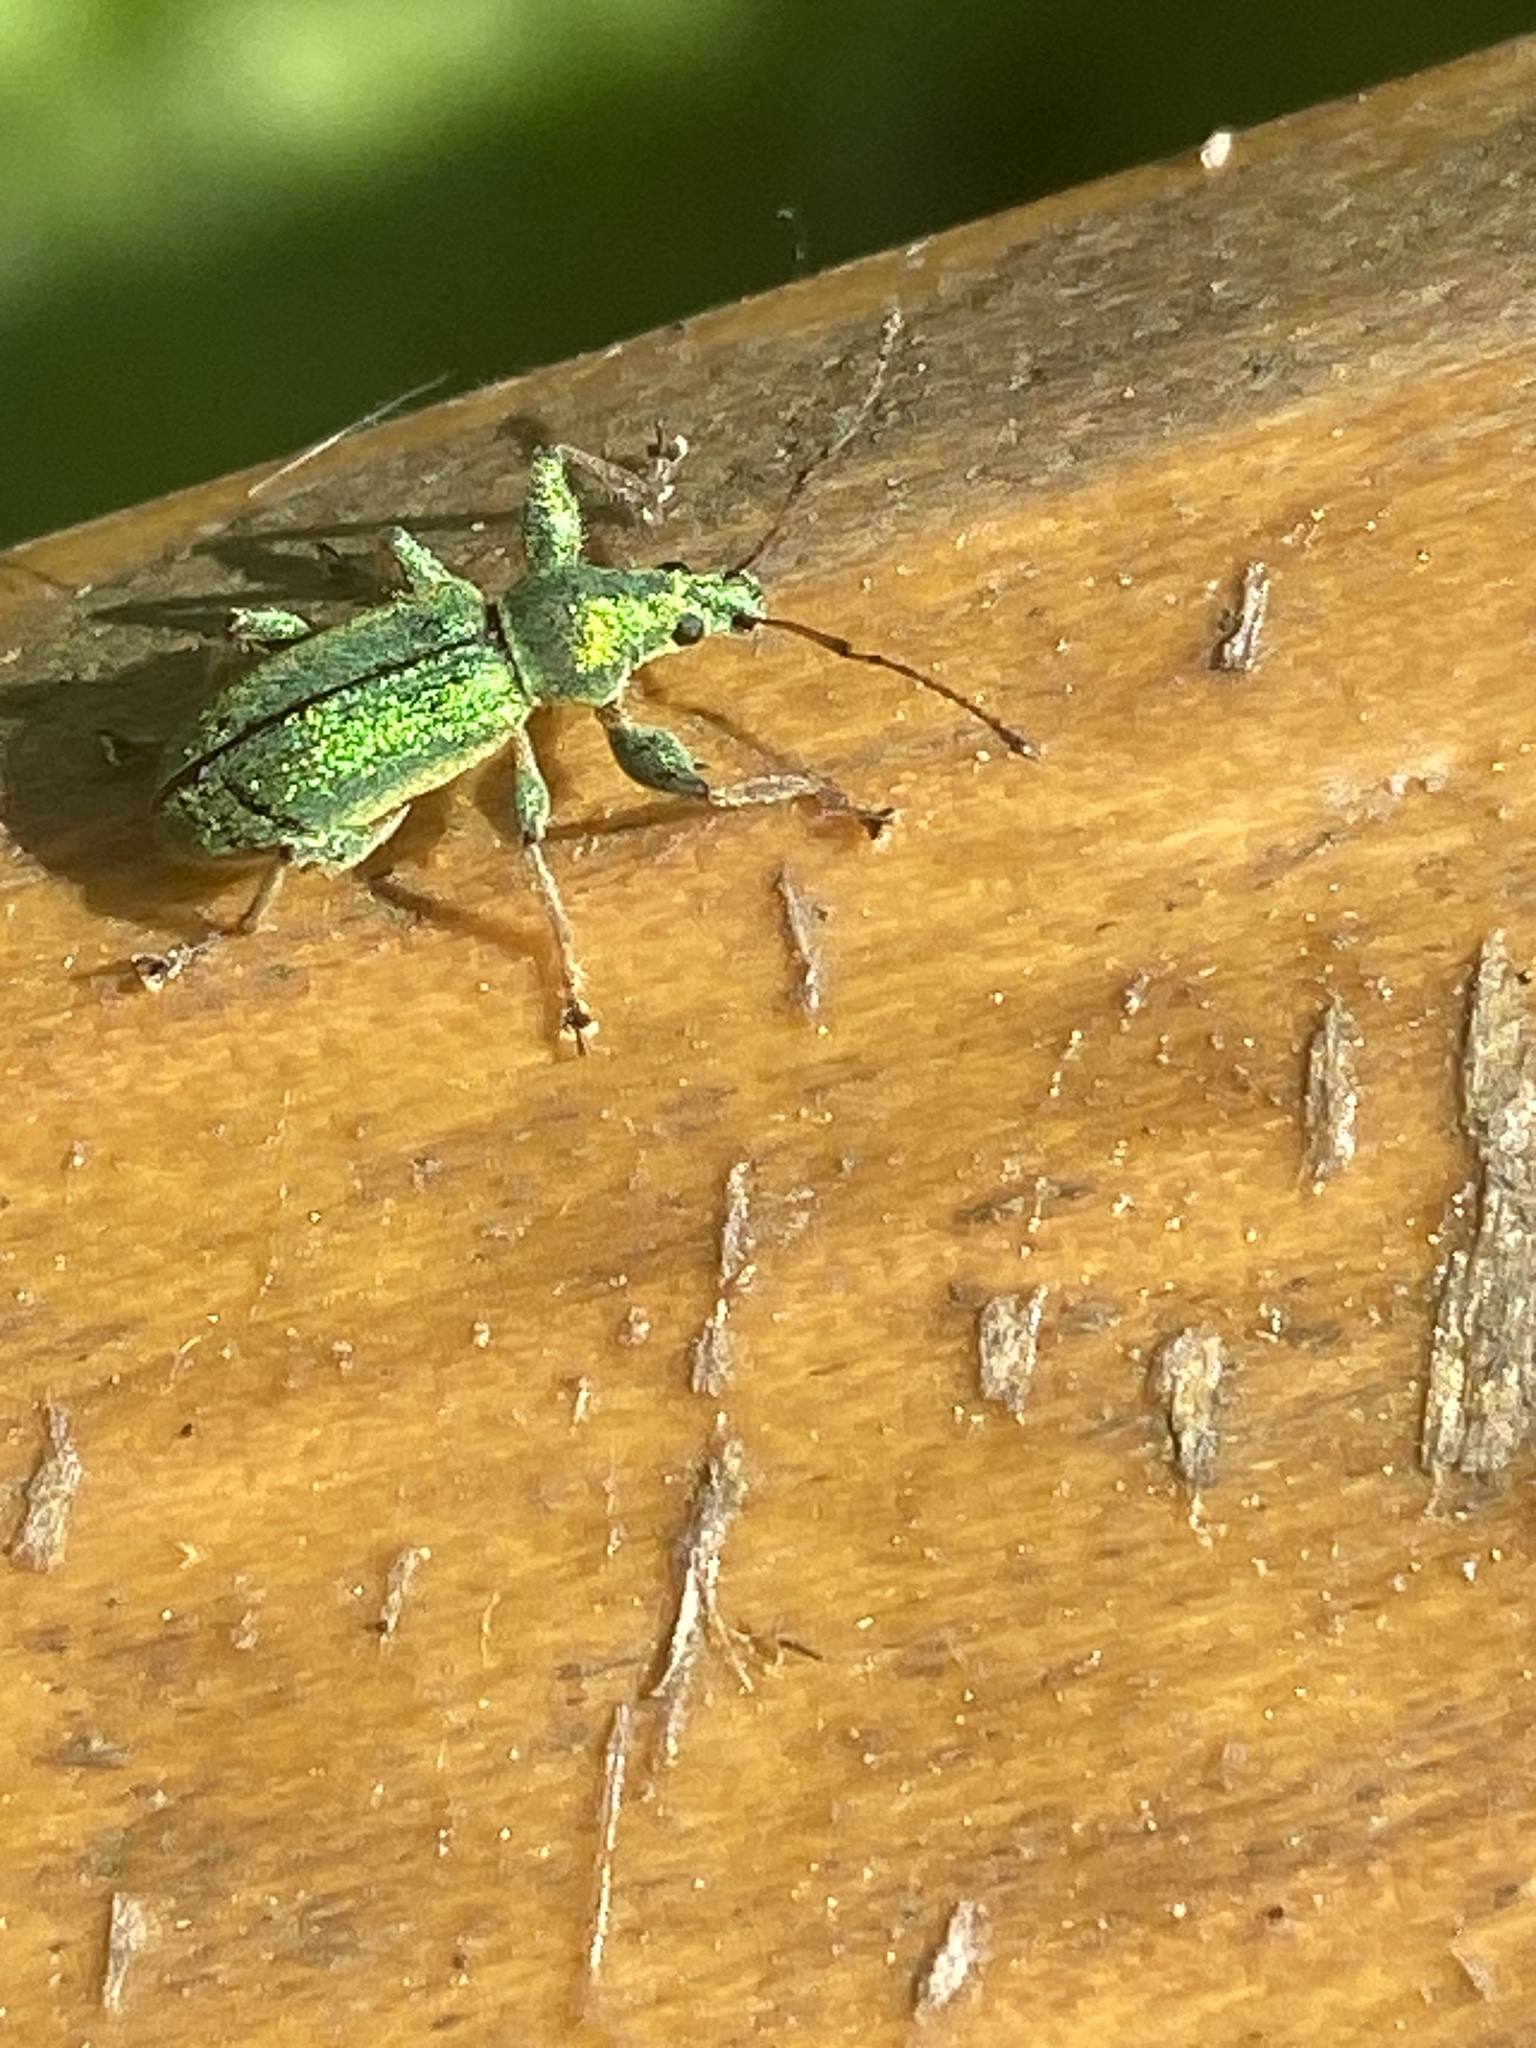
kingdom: Animalia
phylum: Arthropoda
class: Insecta
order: Coleoptera
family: Curculionidae
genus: Phyllobius
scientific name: Phyllobius arborator
